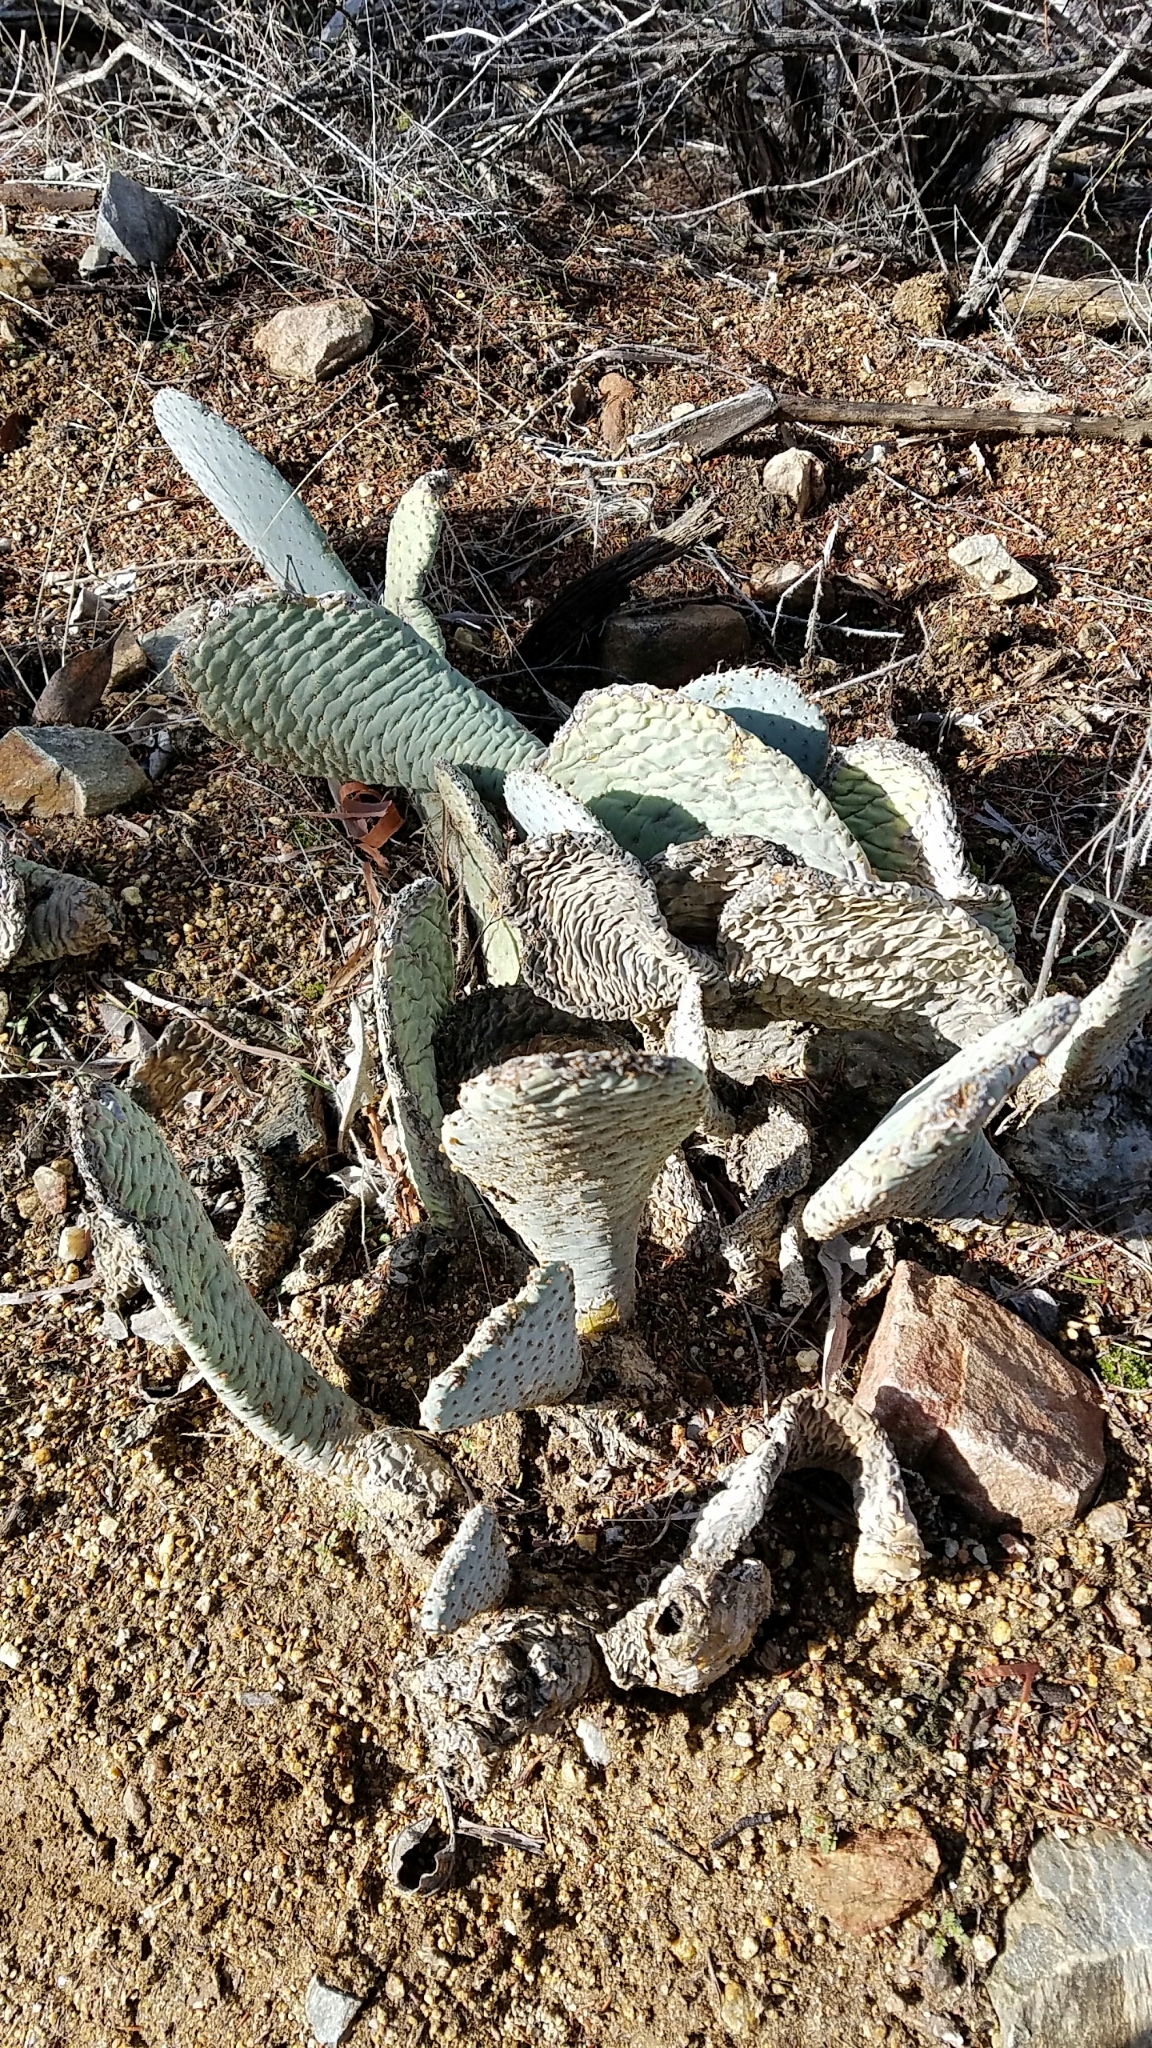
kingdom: Plantae
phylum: Tracheophyta
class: Magnoliopsida
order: Caryophyllales
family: Cactaceae
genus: Opuntia
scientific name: Opuntia basilaris
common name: Beavertail prickly-pear
